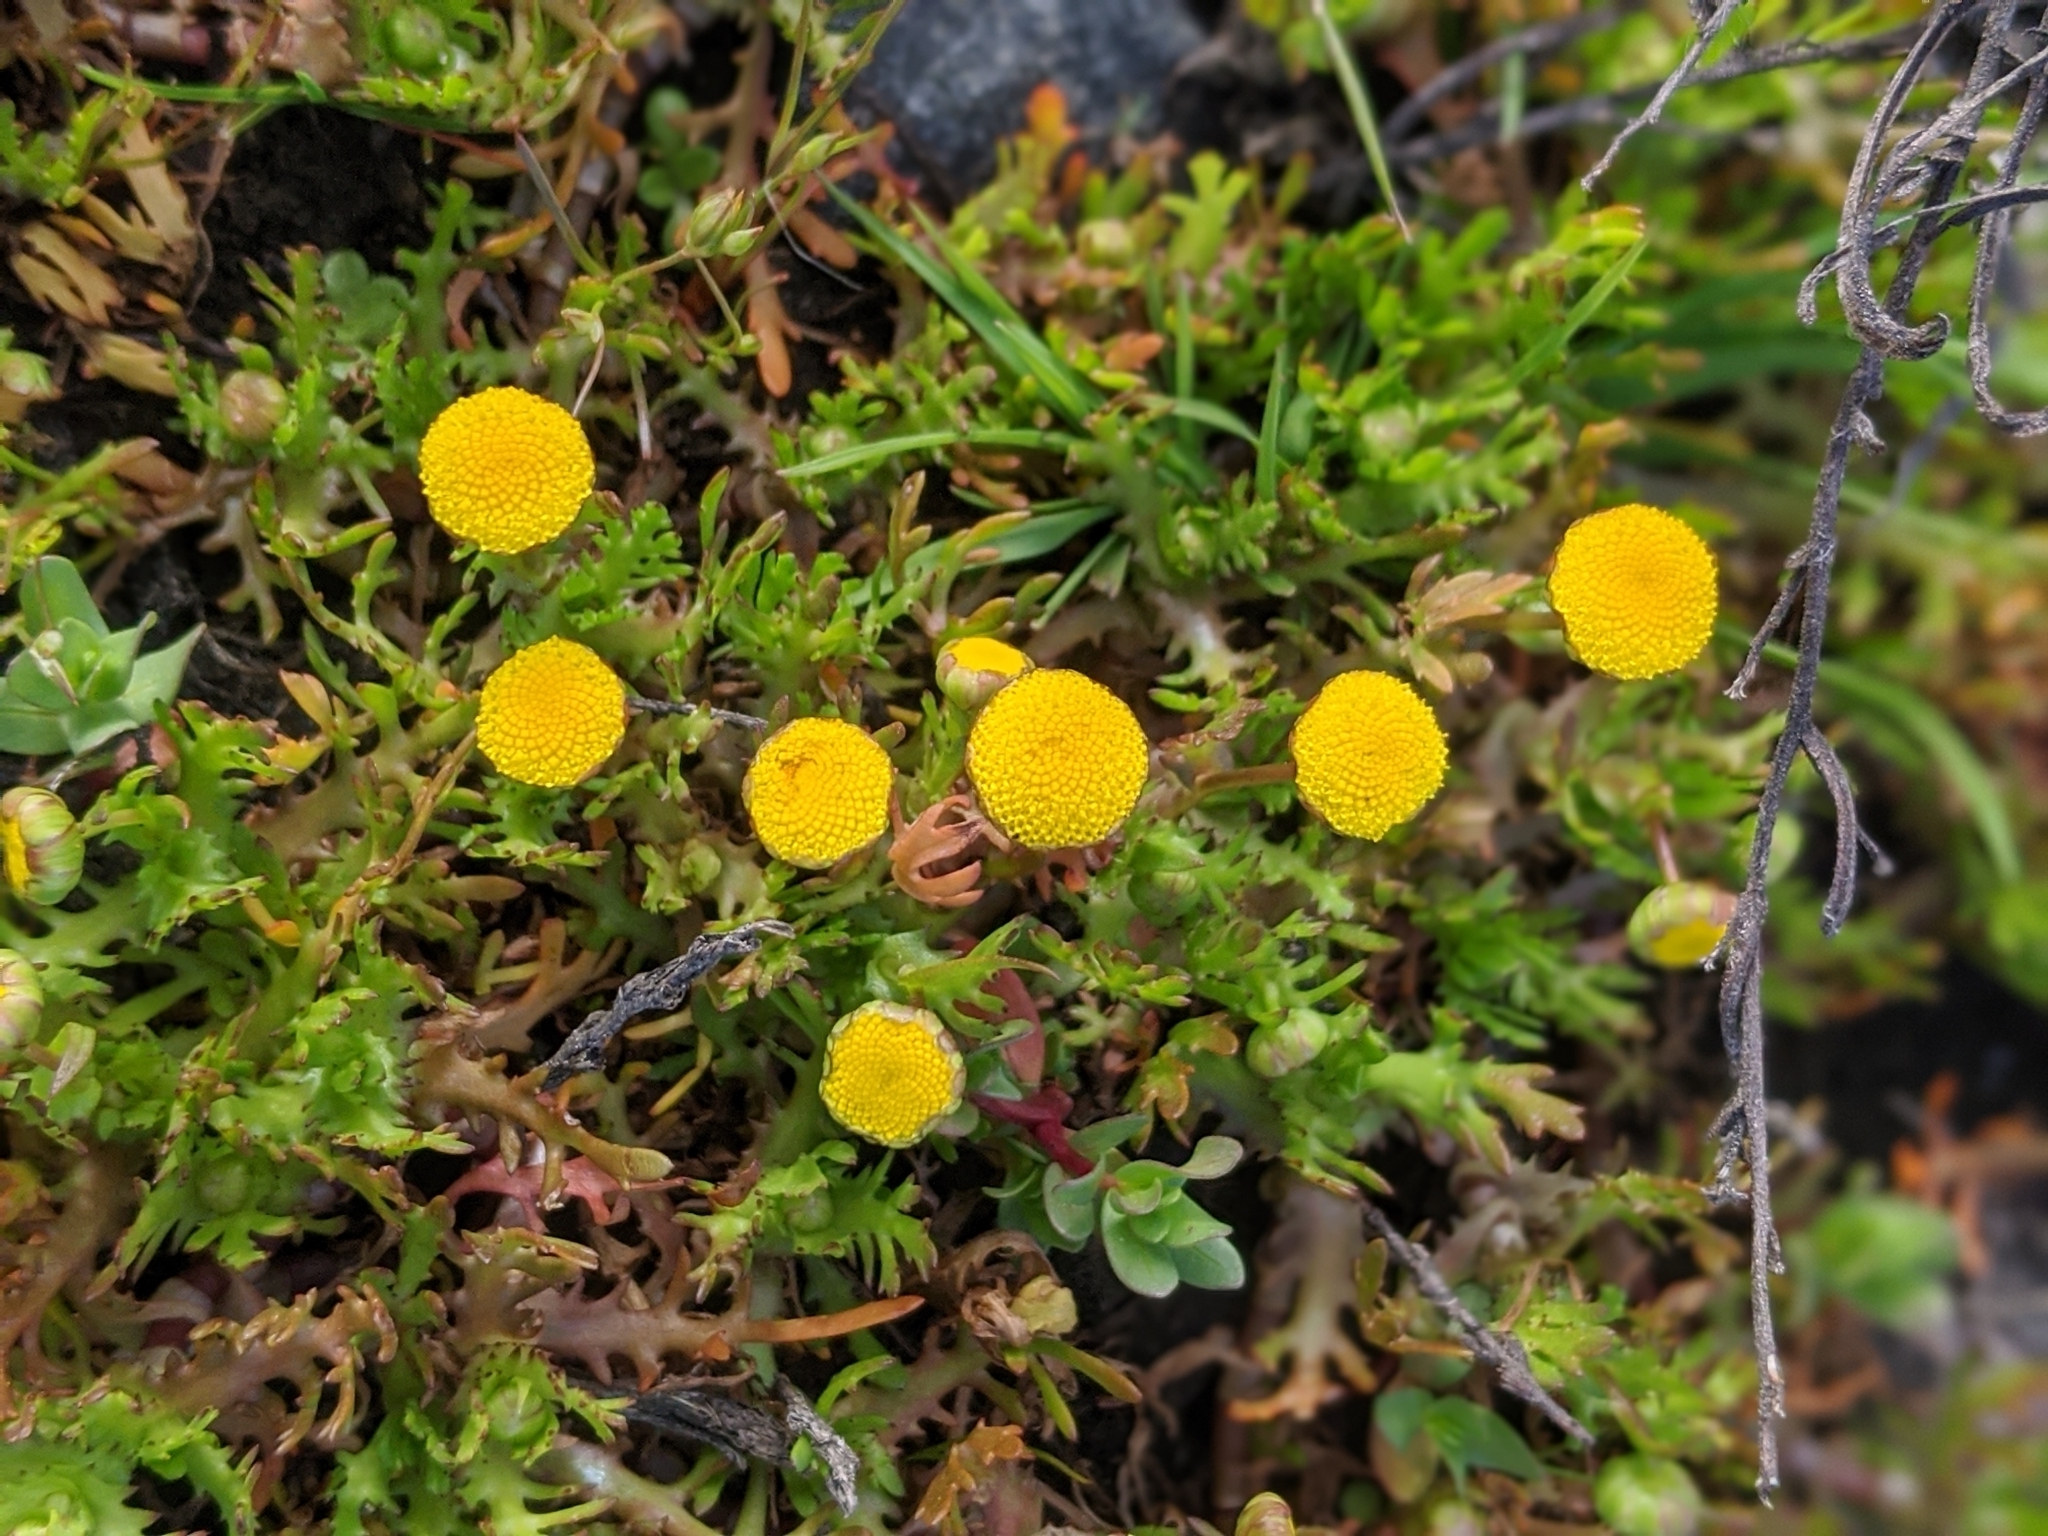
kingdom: Plantae
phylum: Tracheophyta
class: Magnoliopsida
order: Asterales
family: Asteraceae
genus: Cotula
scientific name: Cotula coronopifolia
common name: Buttonweed
